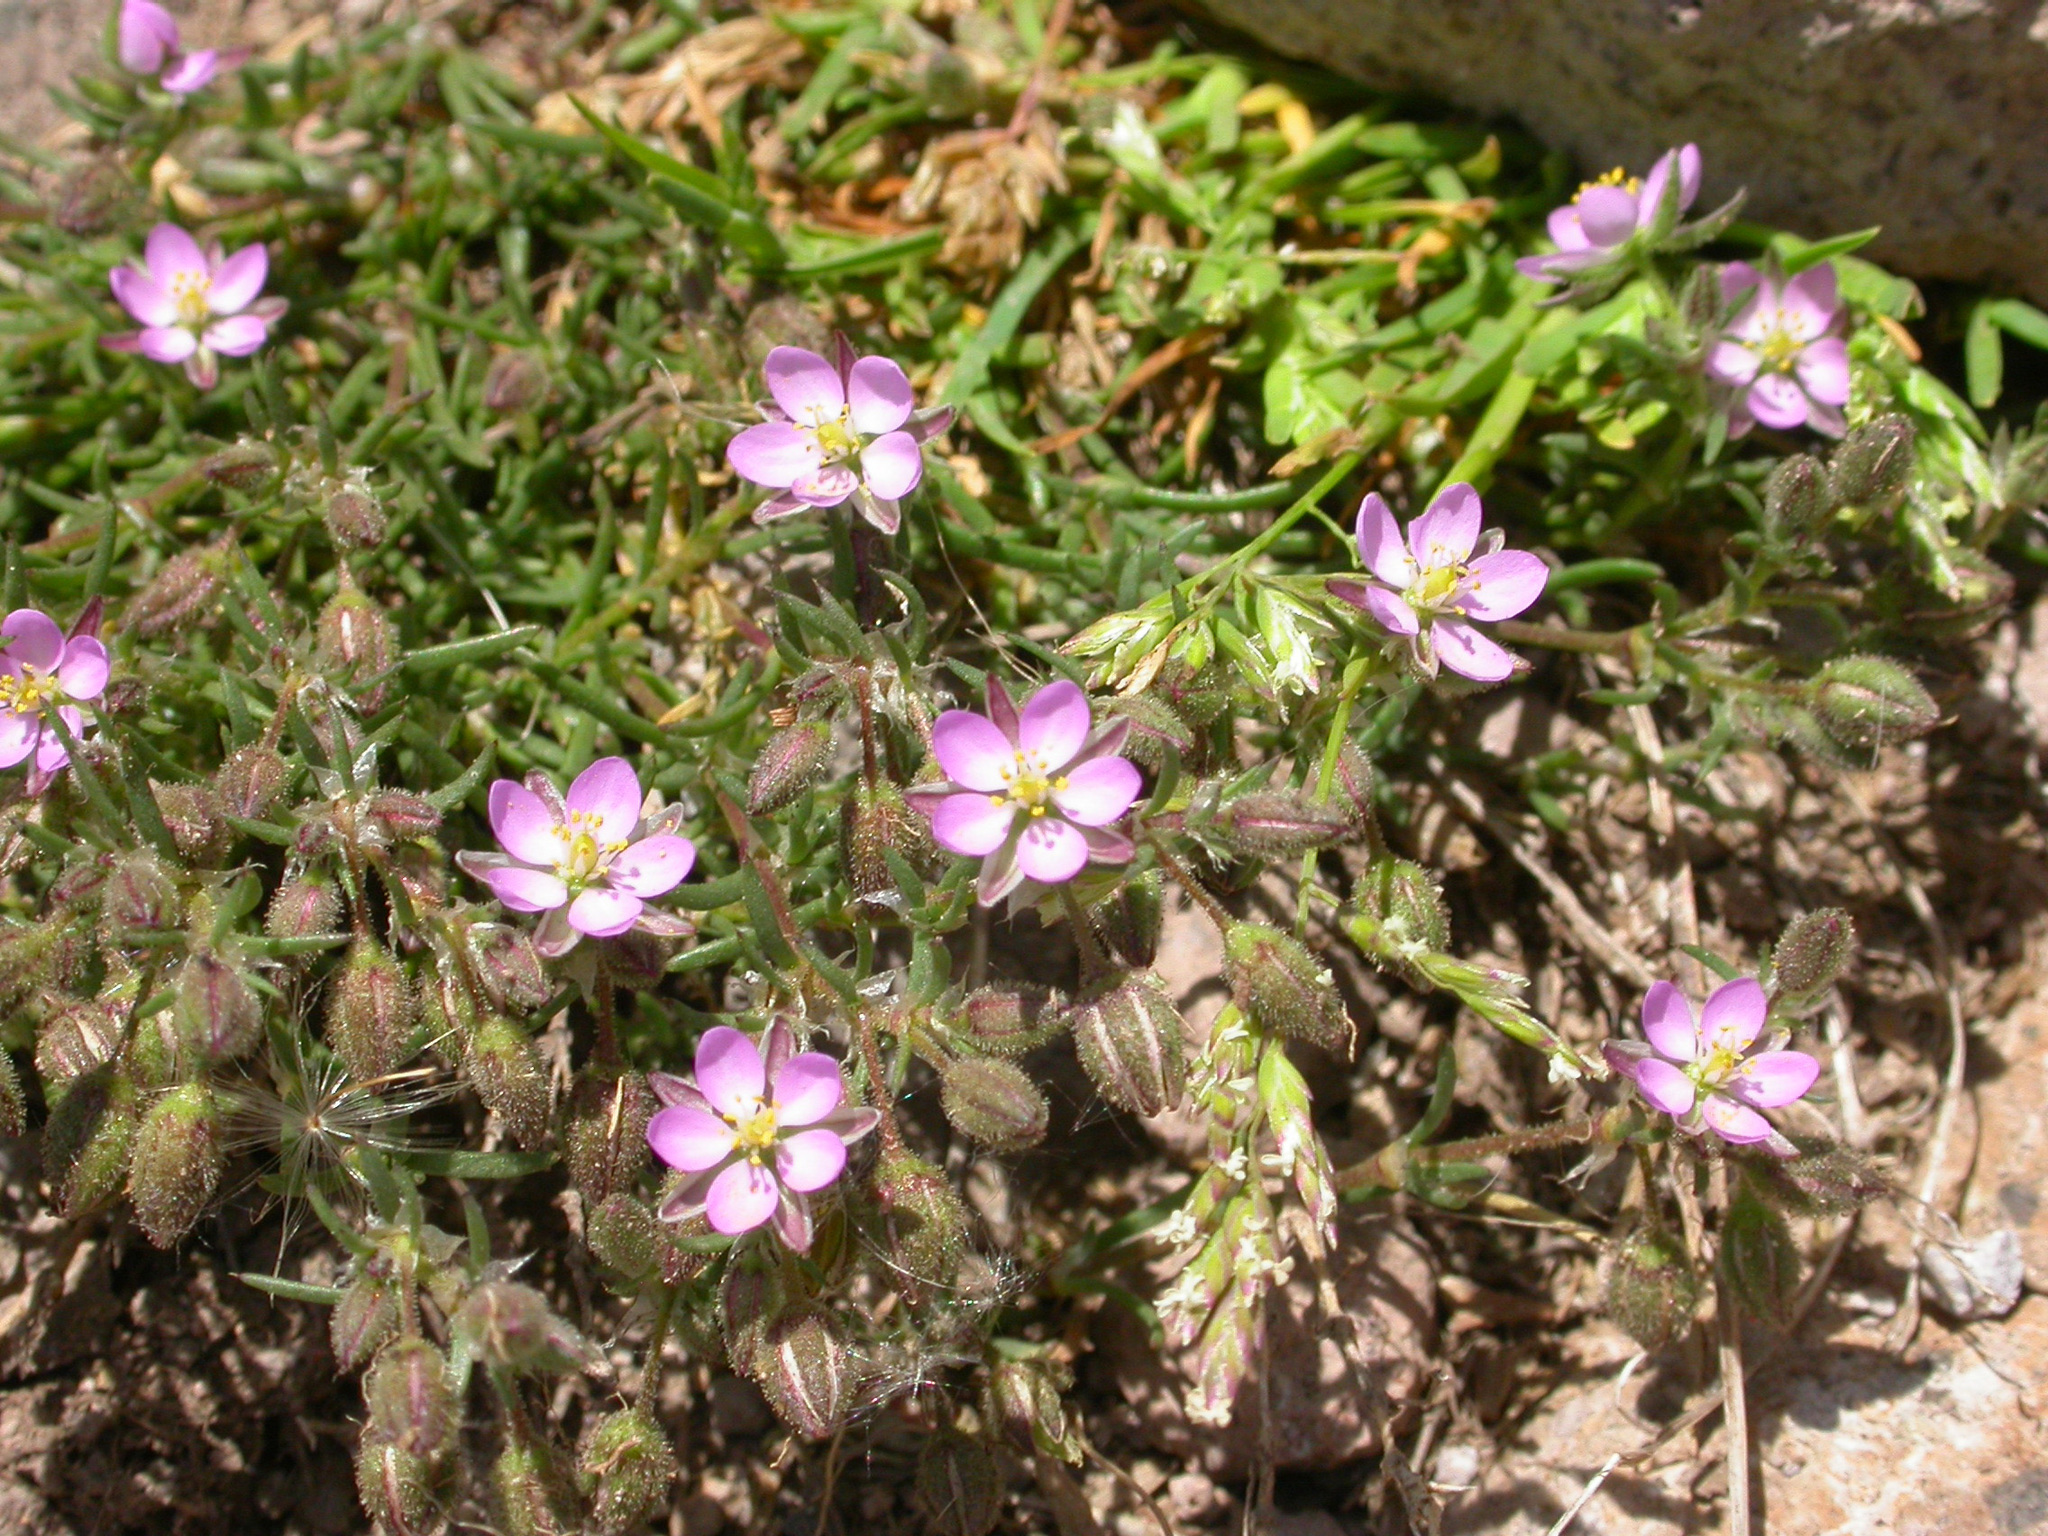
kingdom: Plantae
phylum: Tracheophyta
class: Magnoliopsida
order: Caryophyllales
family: Caryophyllaceae
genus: Spergularia
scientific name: Spergularia rubra
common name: Red sand-spurrey
